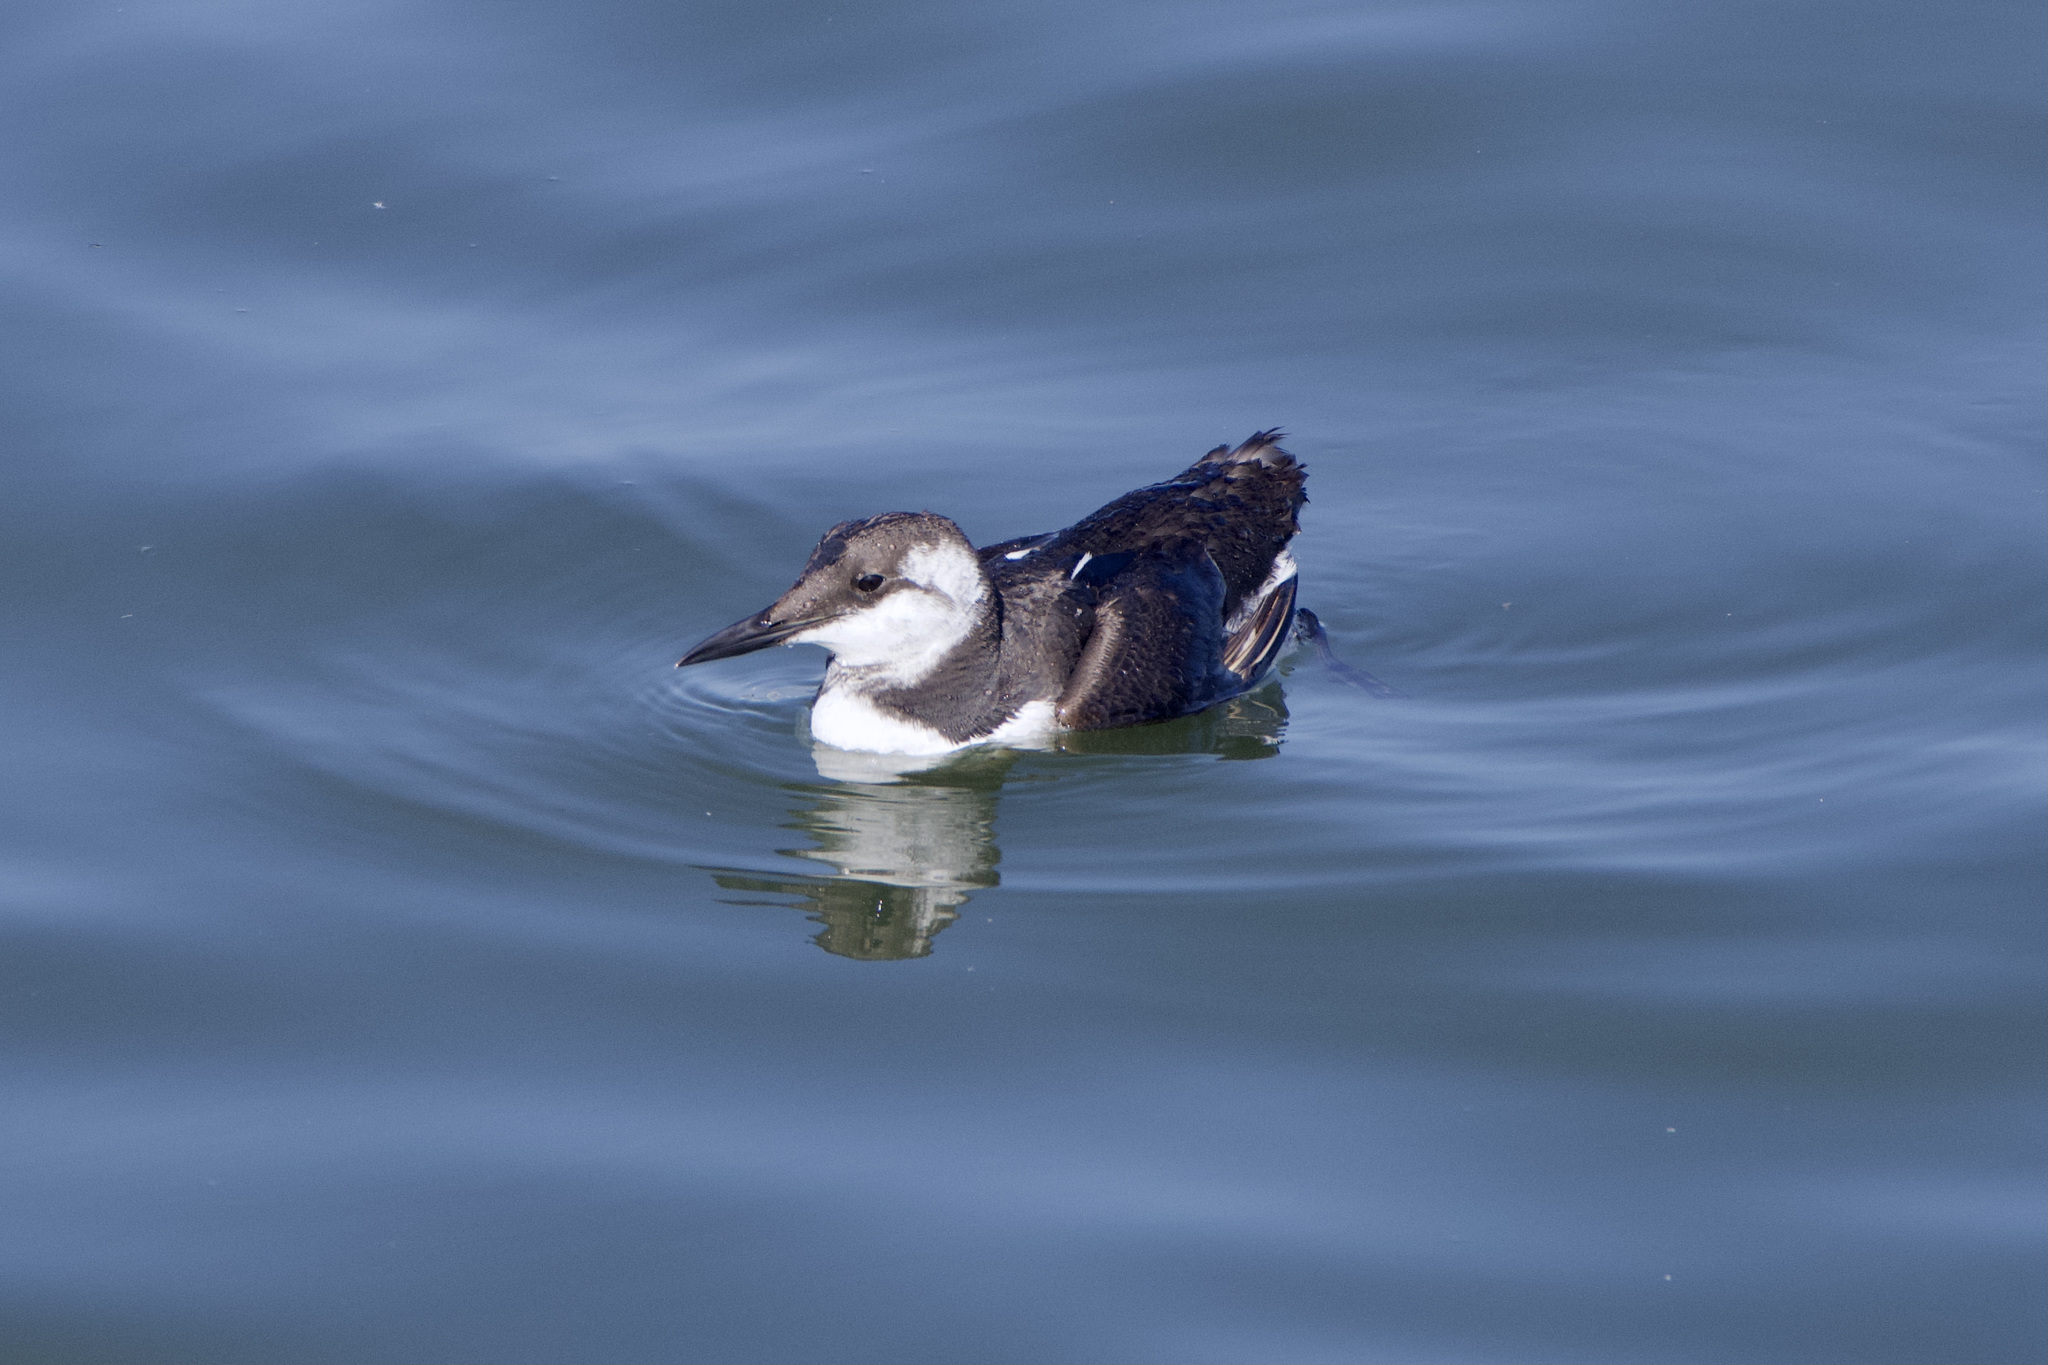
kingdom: Animalia
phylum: Chordata
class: Aves
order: Charadriiformes
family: Alcidae
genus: Uria
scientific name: Uria aalge
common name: Common murre
